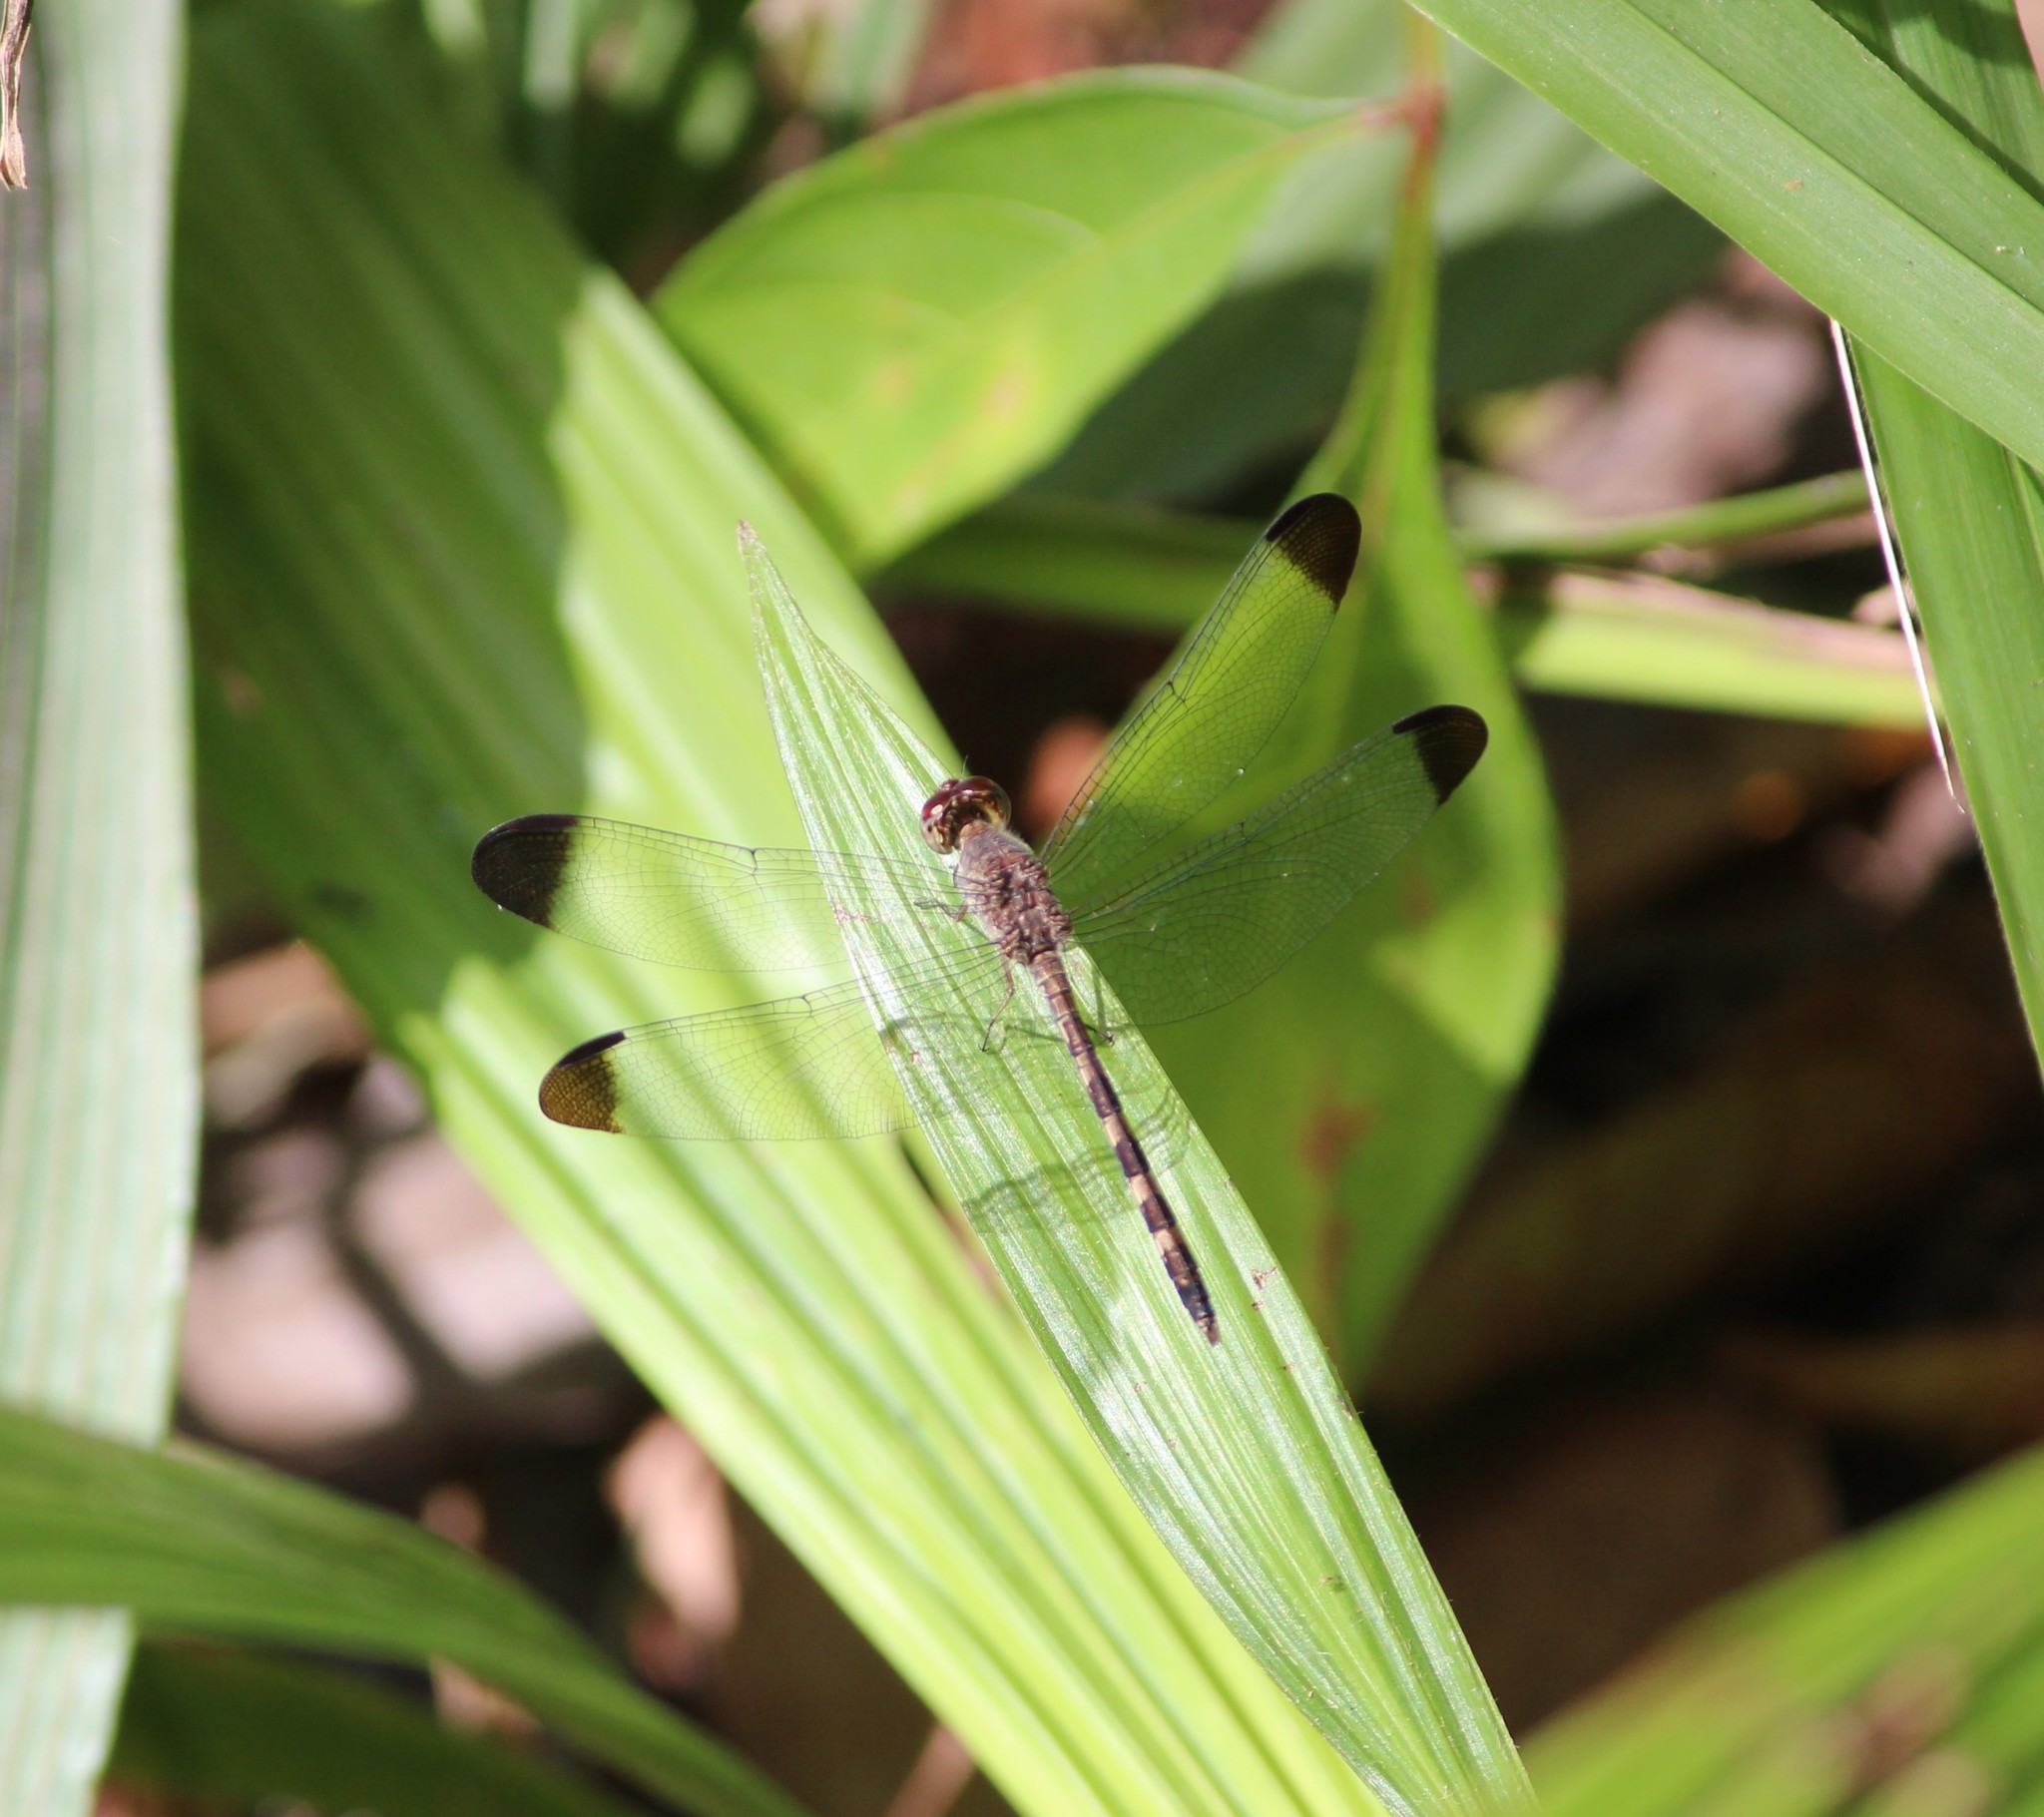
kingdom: Animalia
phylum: Arthropoda
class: Insecta
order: Odonata
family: Libellulidae
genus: Uracis
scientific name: Uracis imbuta
